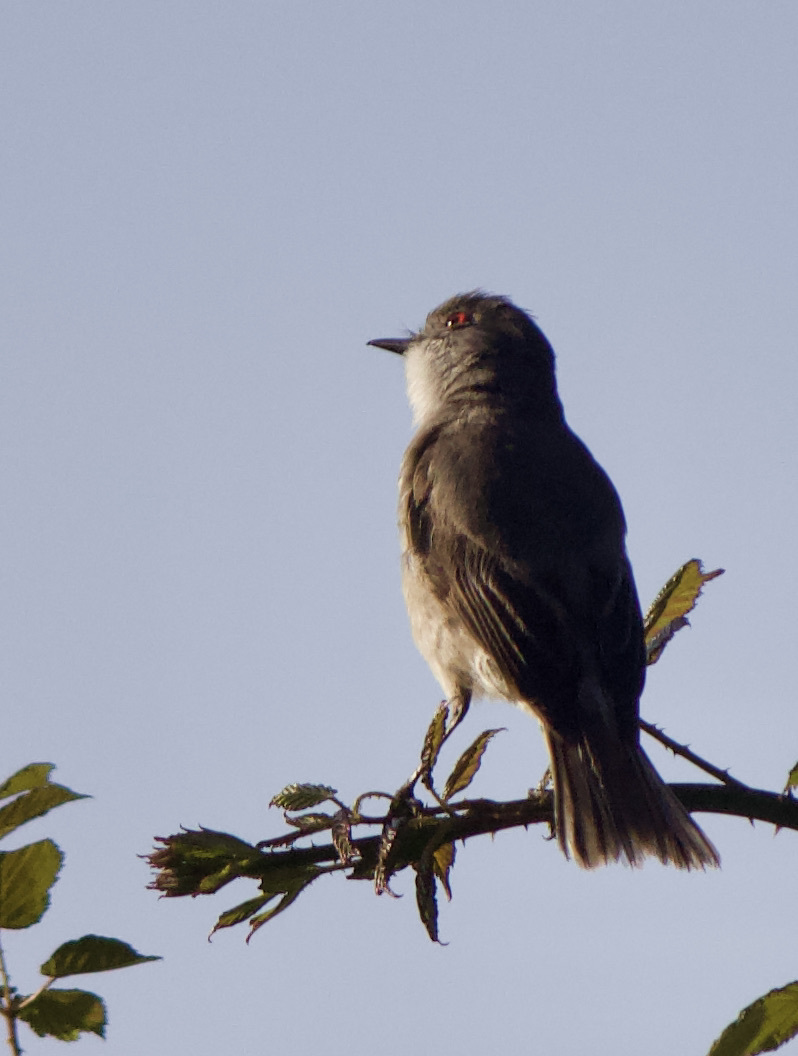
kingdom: Animalia
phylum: Chordata
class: Aves
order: Passeriformes
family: Tyrannidae
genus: Xolmis
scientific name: Xolmis pyrope
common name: Fire-eyed diucon
